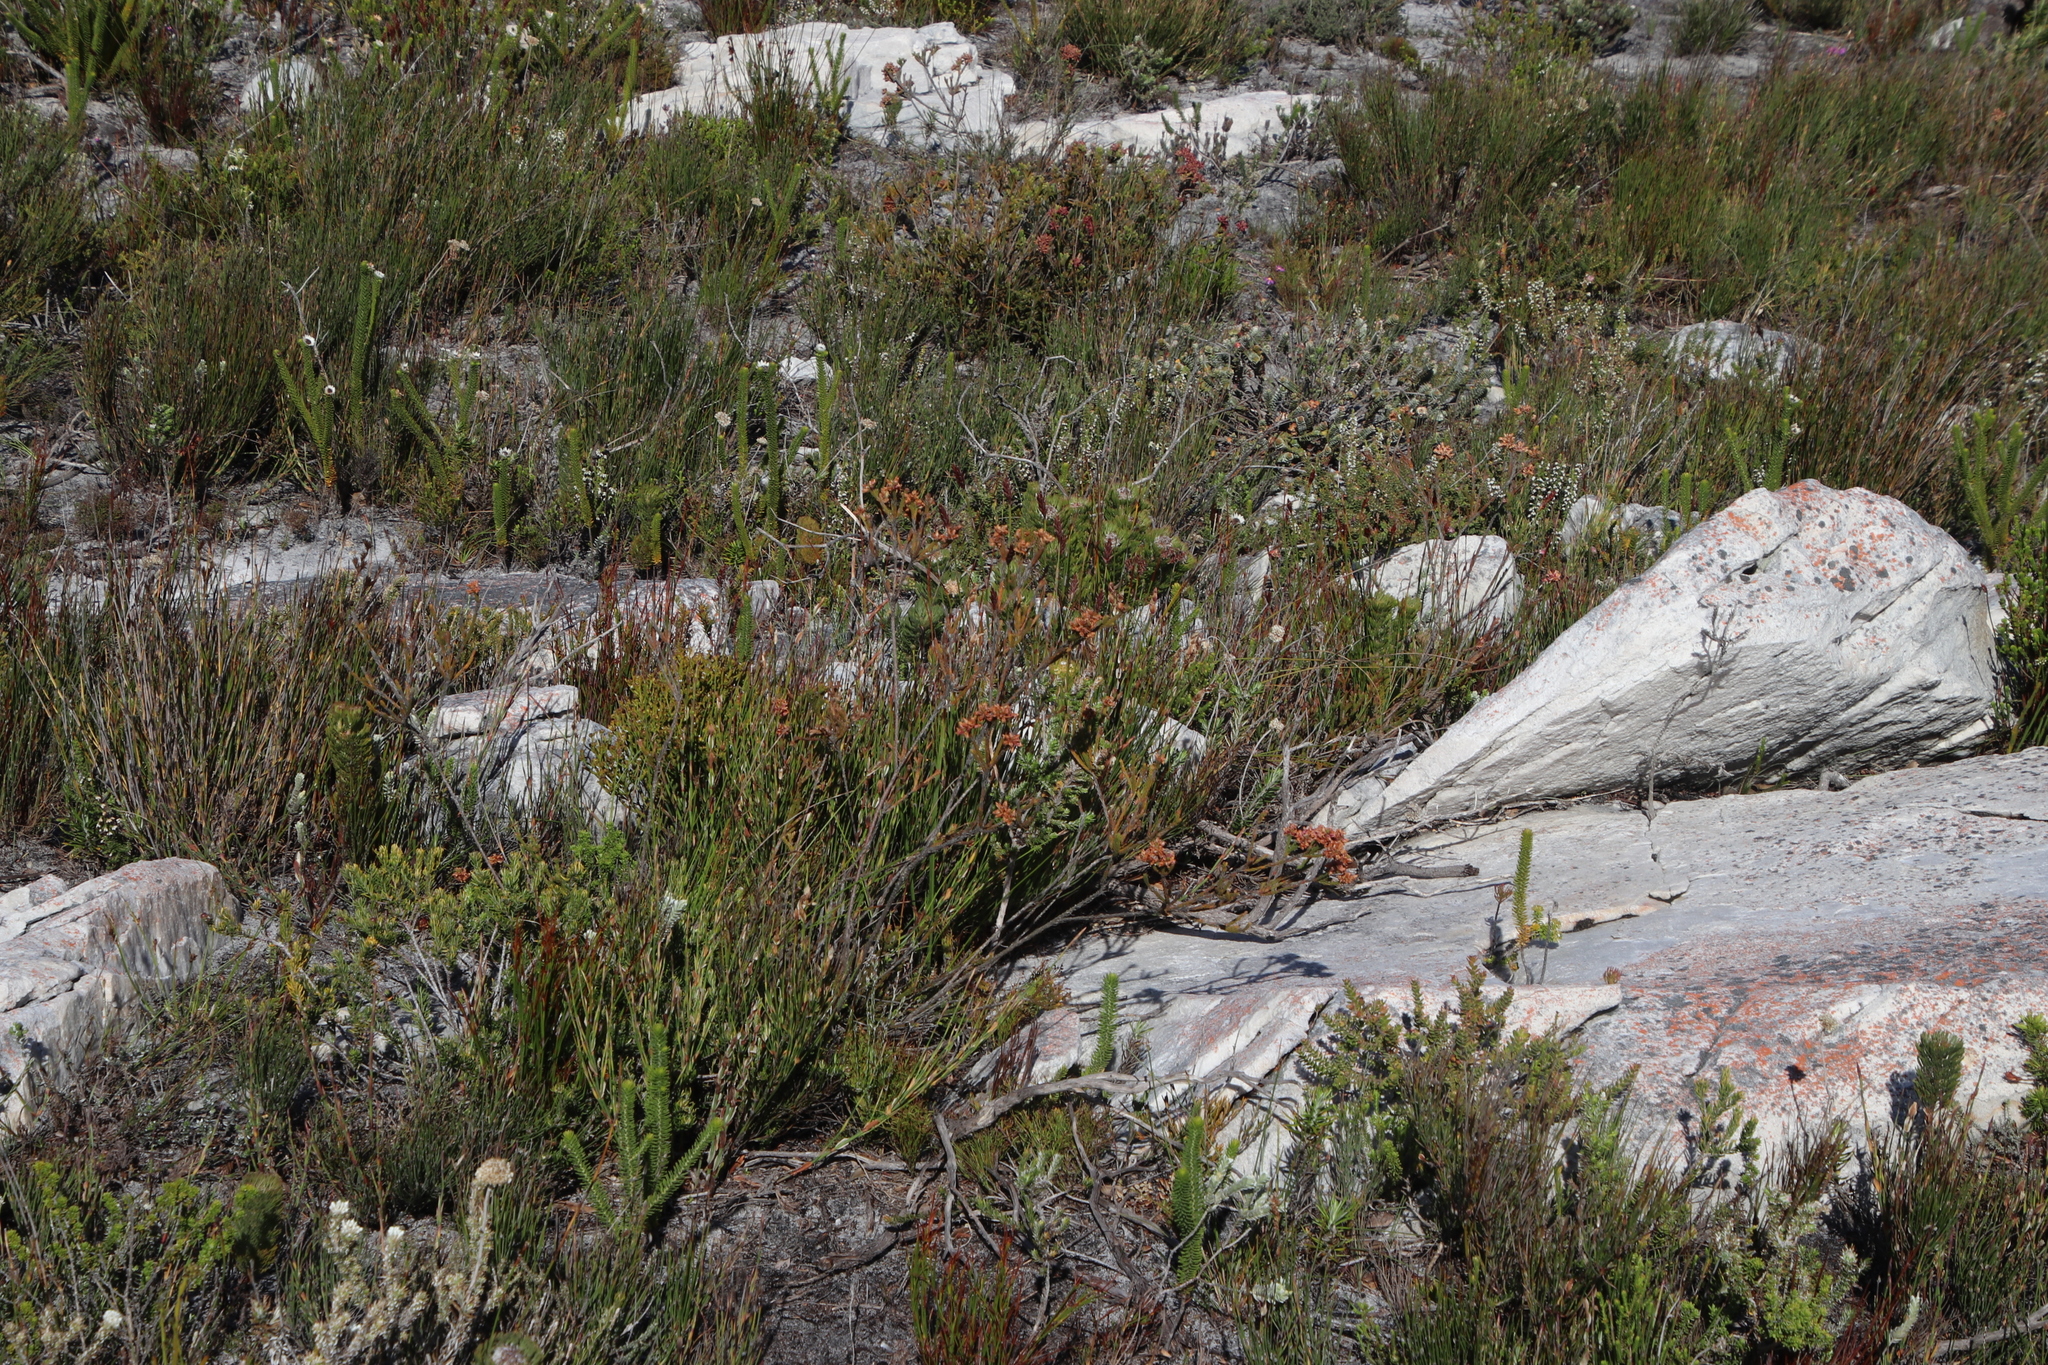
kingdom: Plantae
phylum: Tracheophyta
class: Magnoliopsida
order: Bruniales
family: Bruniaceae
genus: Audouinia
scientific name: Audouinia capitata
